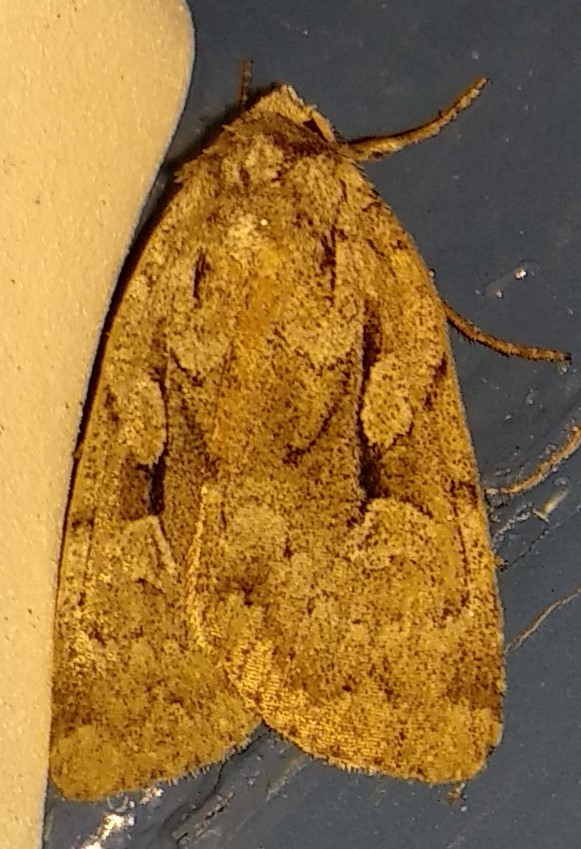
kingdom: Animalia
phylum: Arthropoda
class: Insecta
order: Lepidoptera
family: Noctuidae
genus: Xestia
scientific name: Xestia badicollis
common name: Northern variable dart
